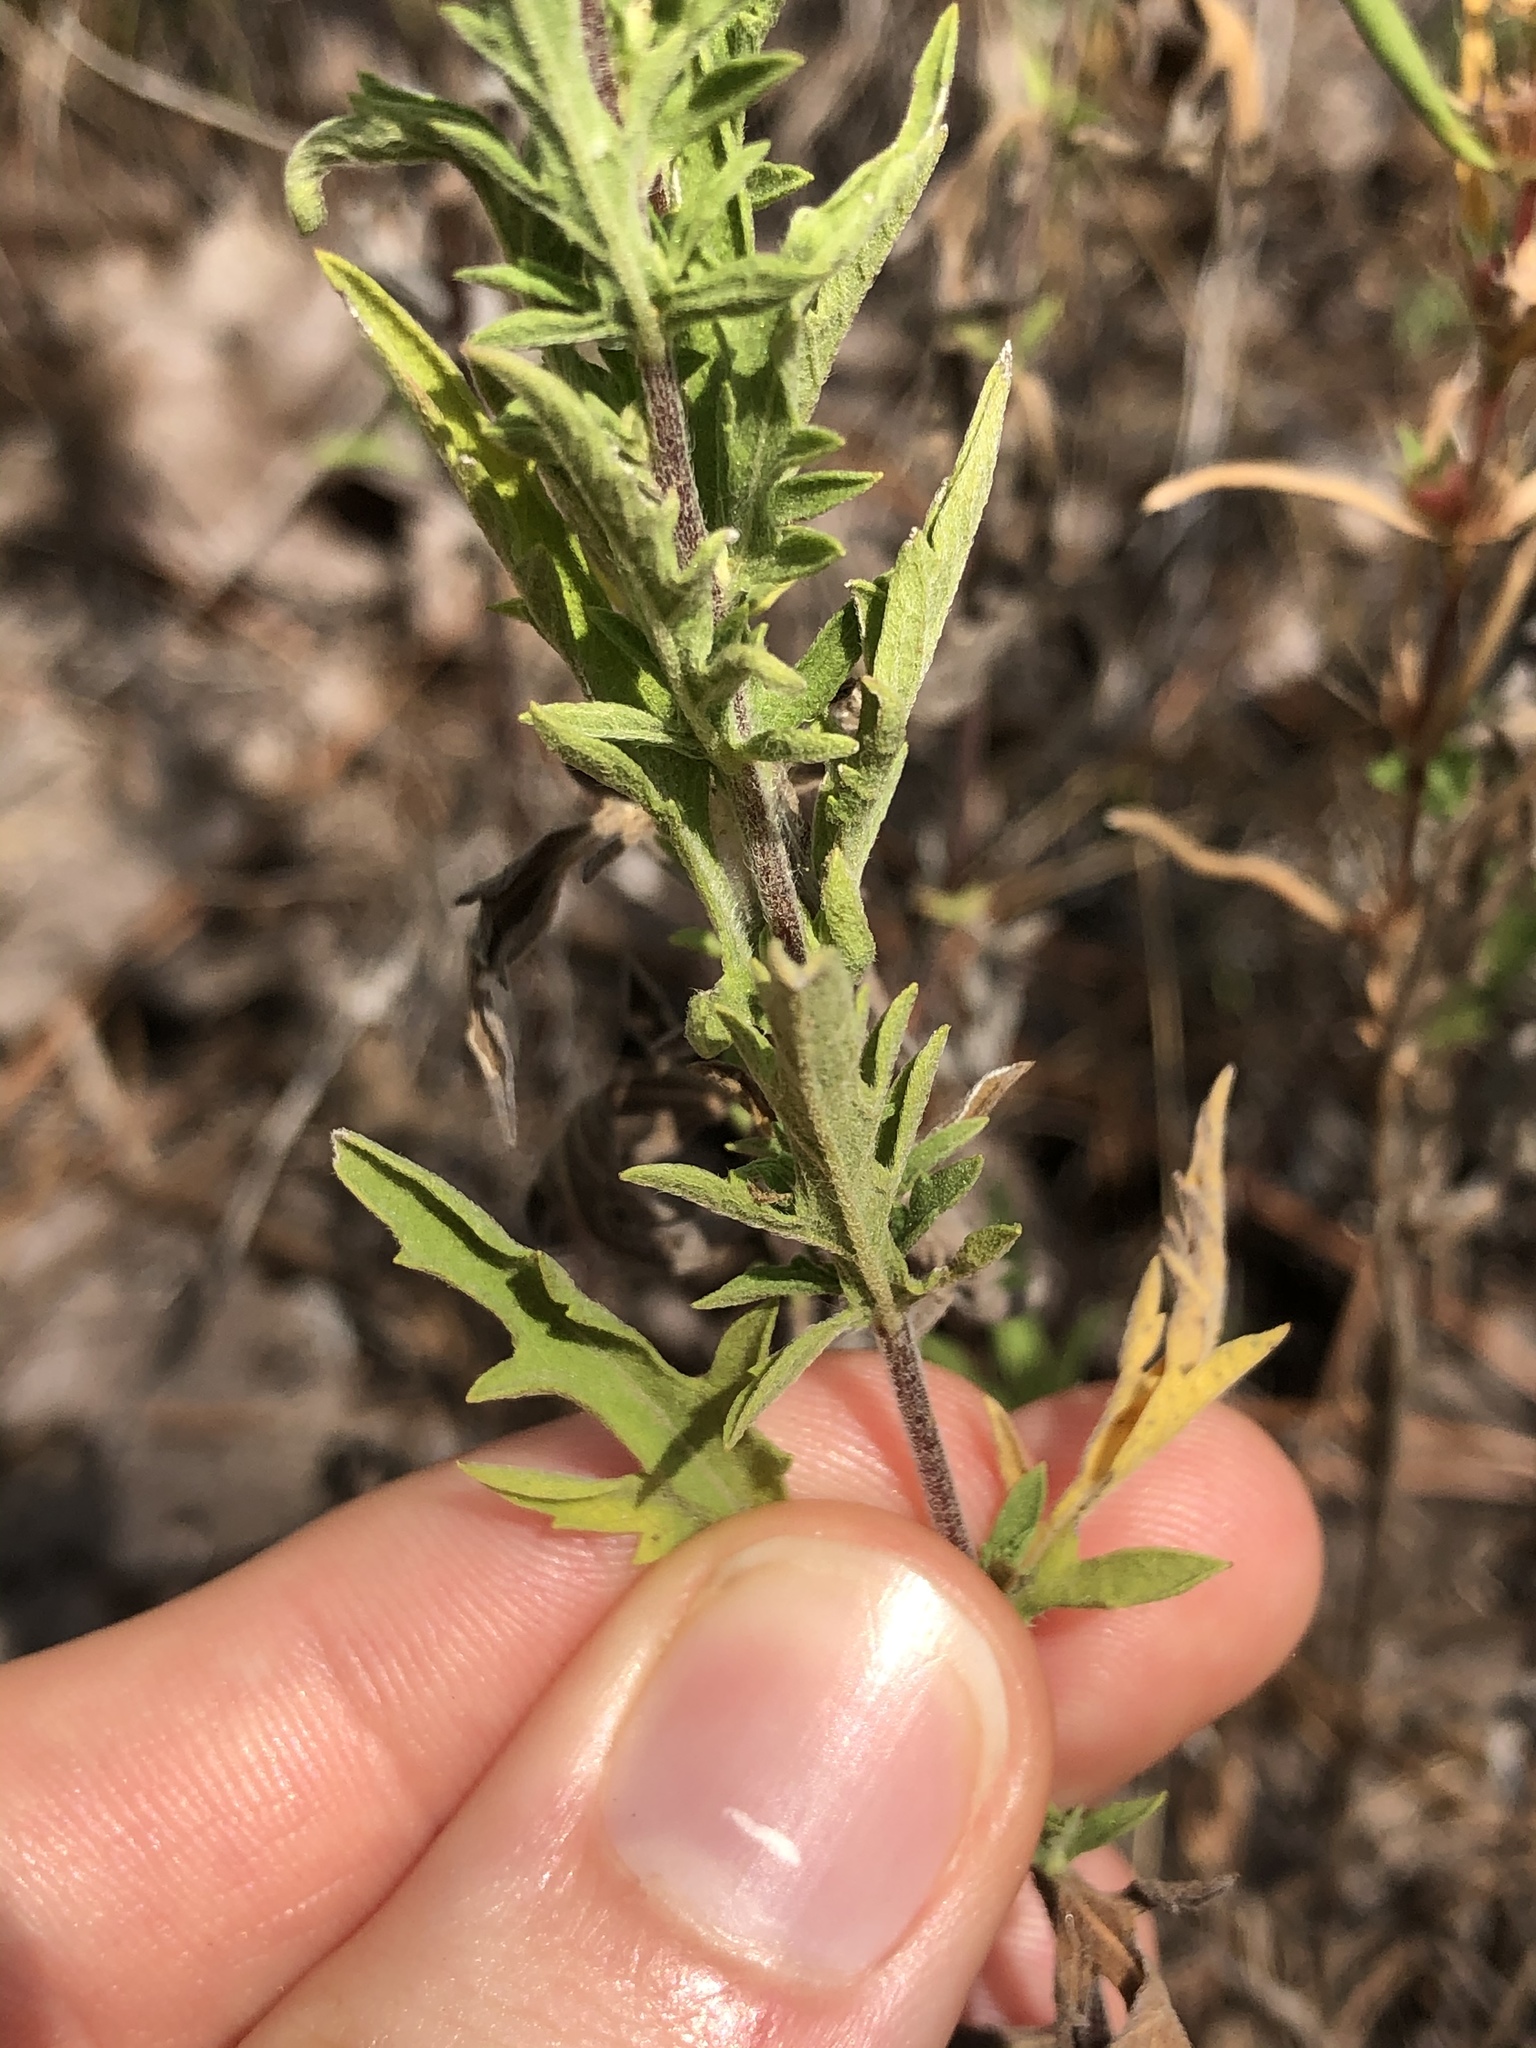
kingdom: Plantae
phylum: Tracheophyta
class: Magnoliopsida
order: Asterales
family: Asteraceae
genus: Ambrosia
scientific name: Ambrosia psilostachya
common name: Perennial ragweed
